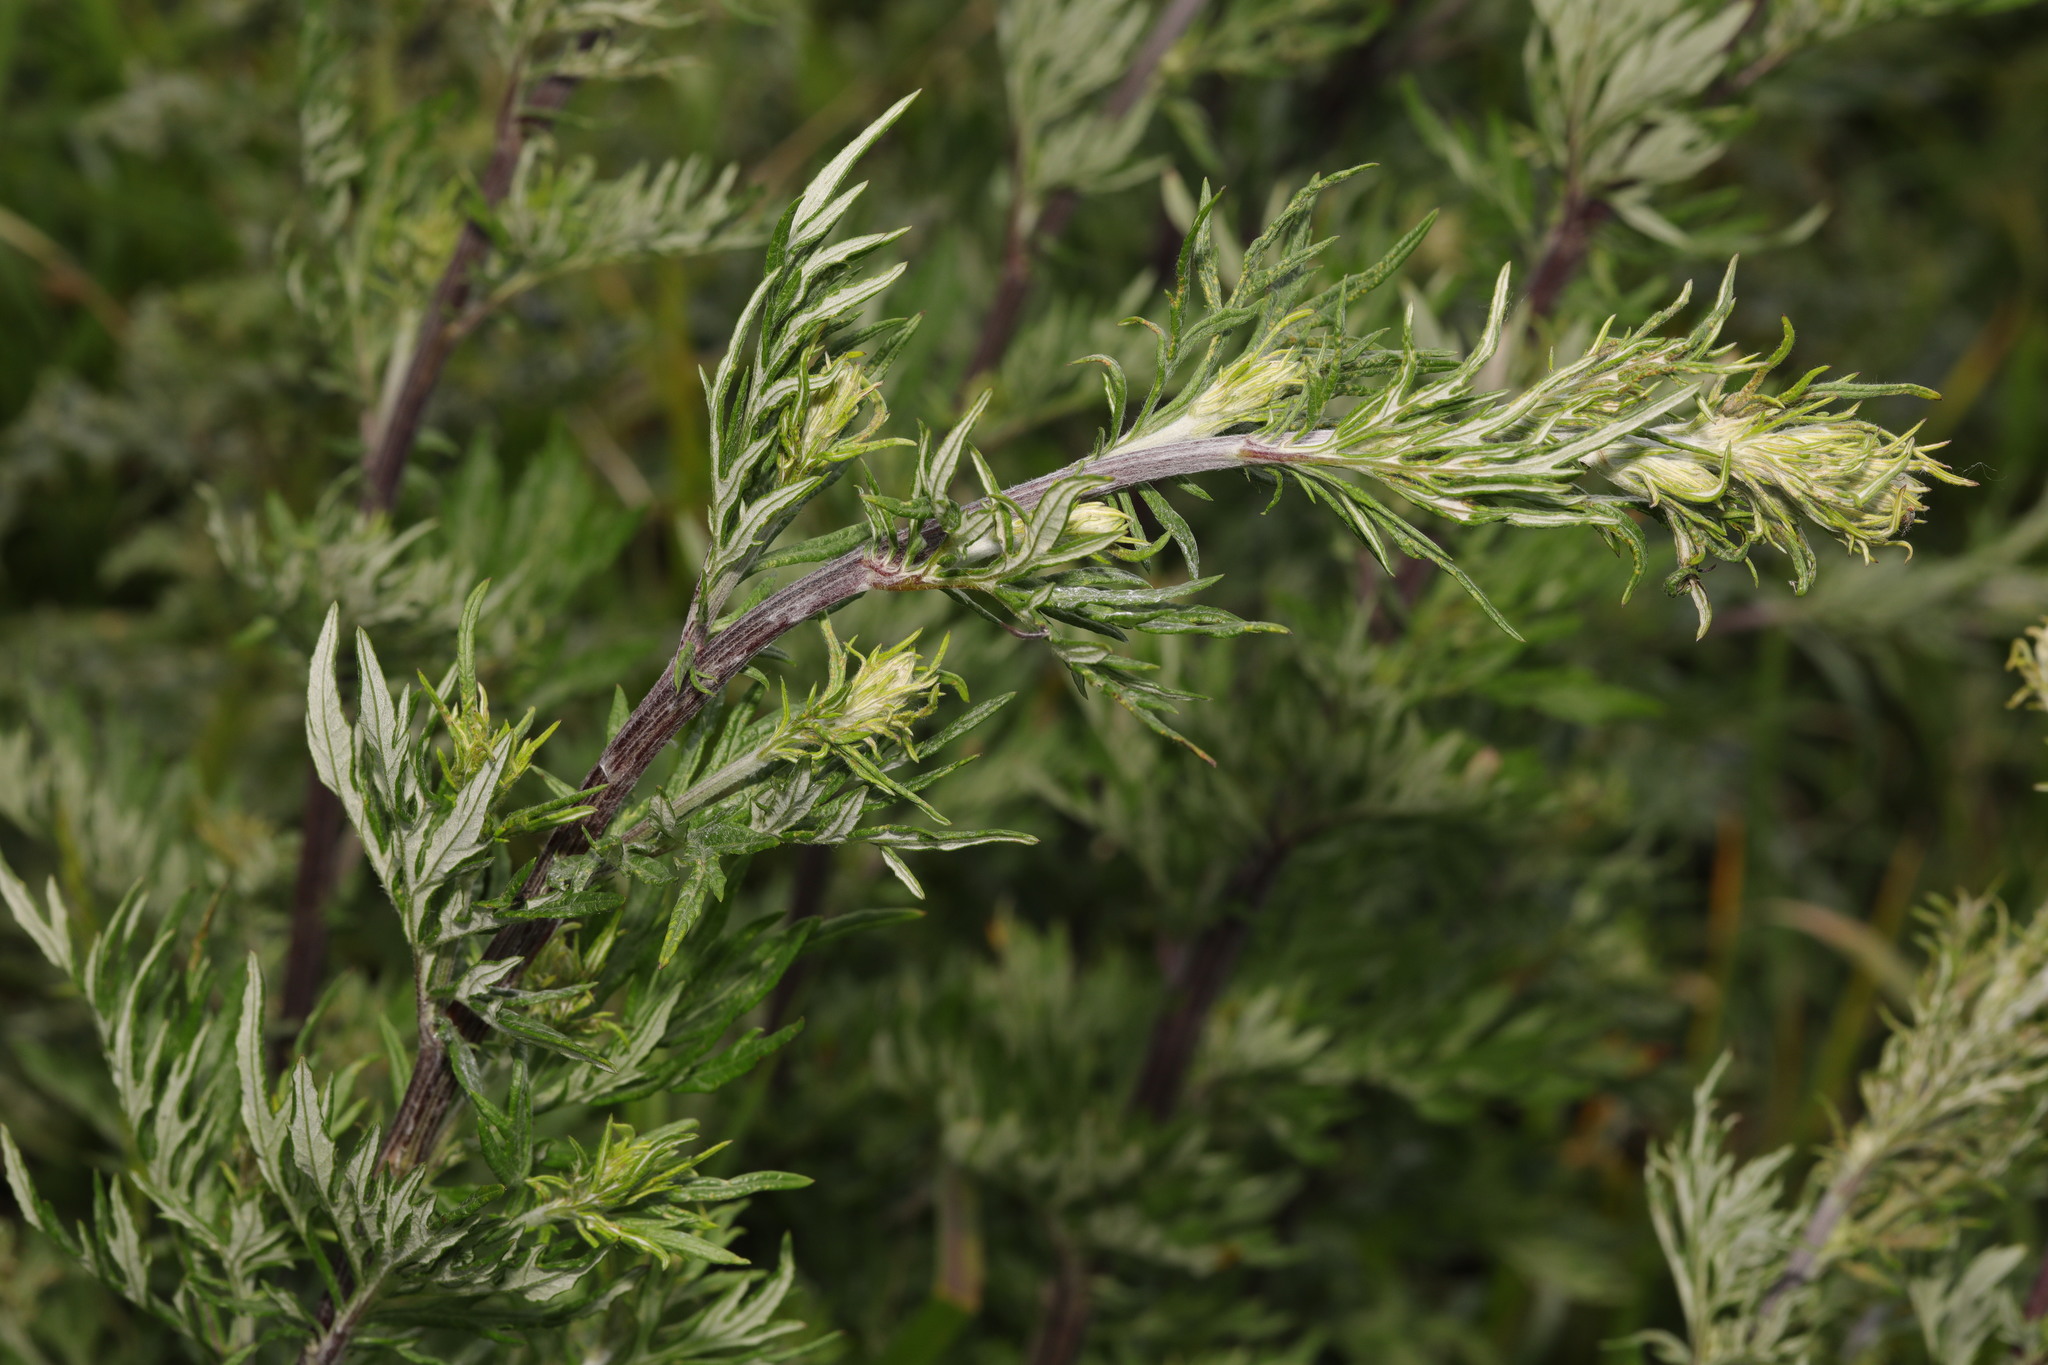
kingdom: Plantae
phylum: Tracheophyta
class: Magnoliopsida
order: Asterales
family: Asteraceae
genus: Artemisia
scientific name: Artemisia vulgaris
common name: Mugwort
